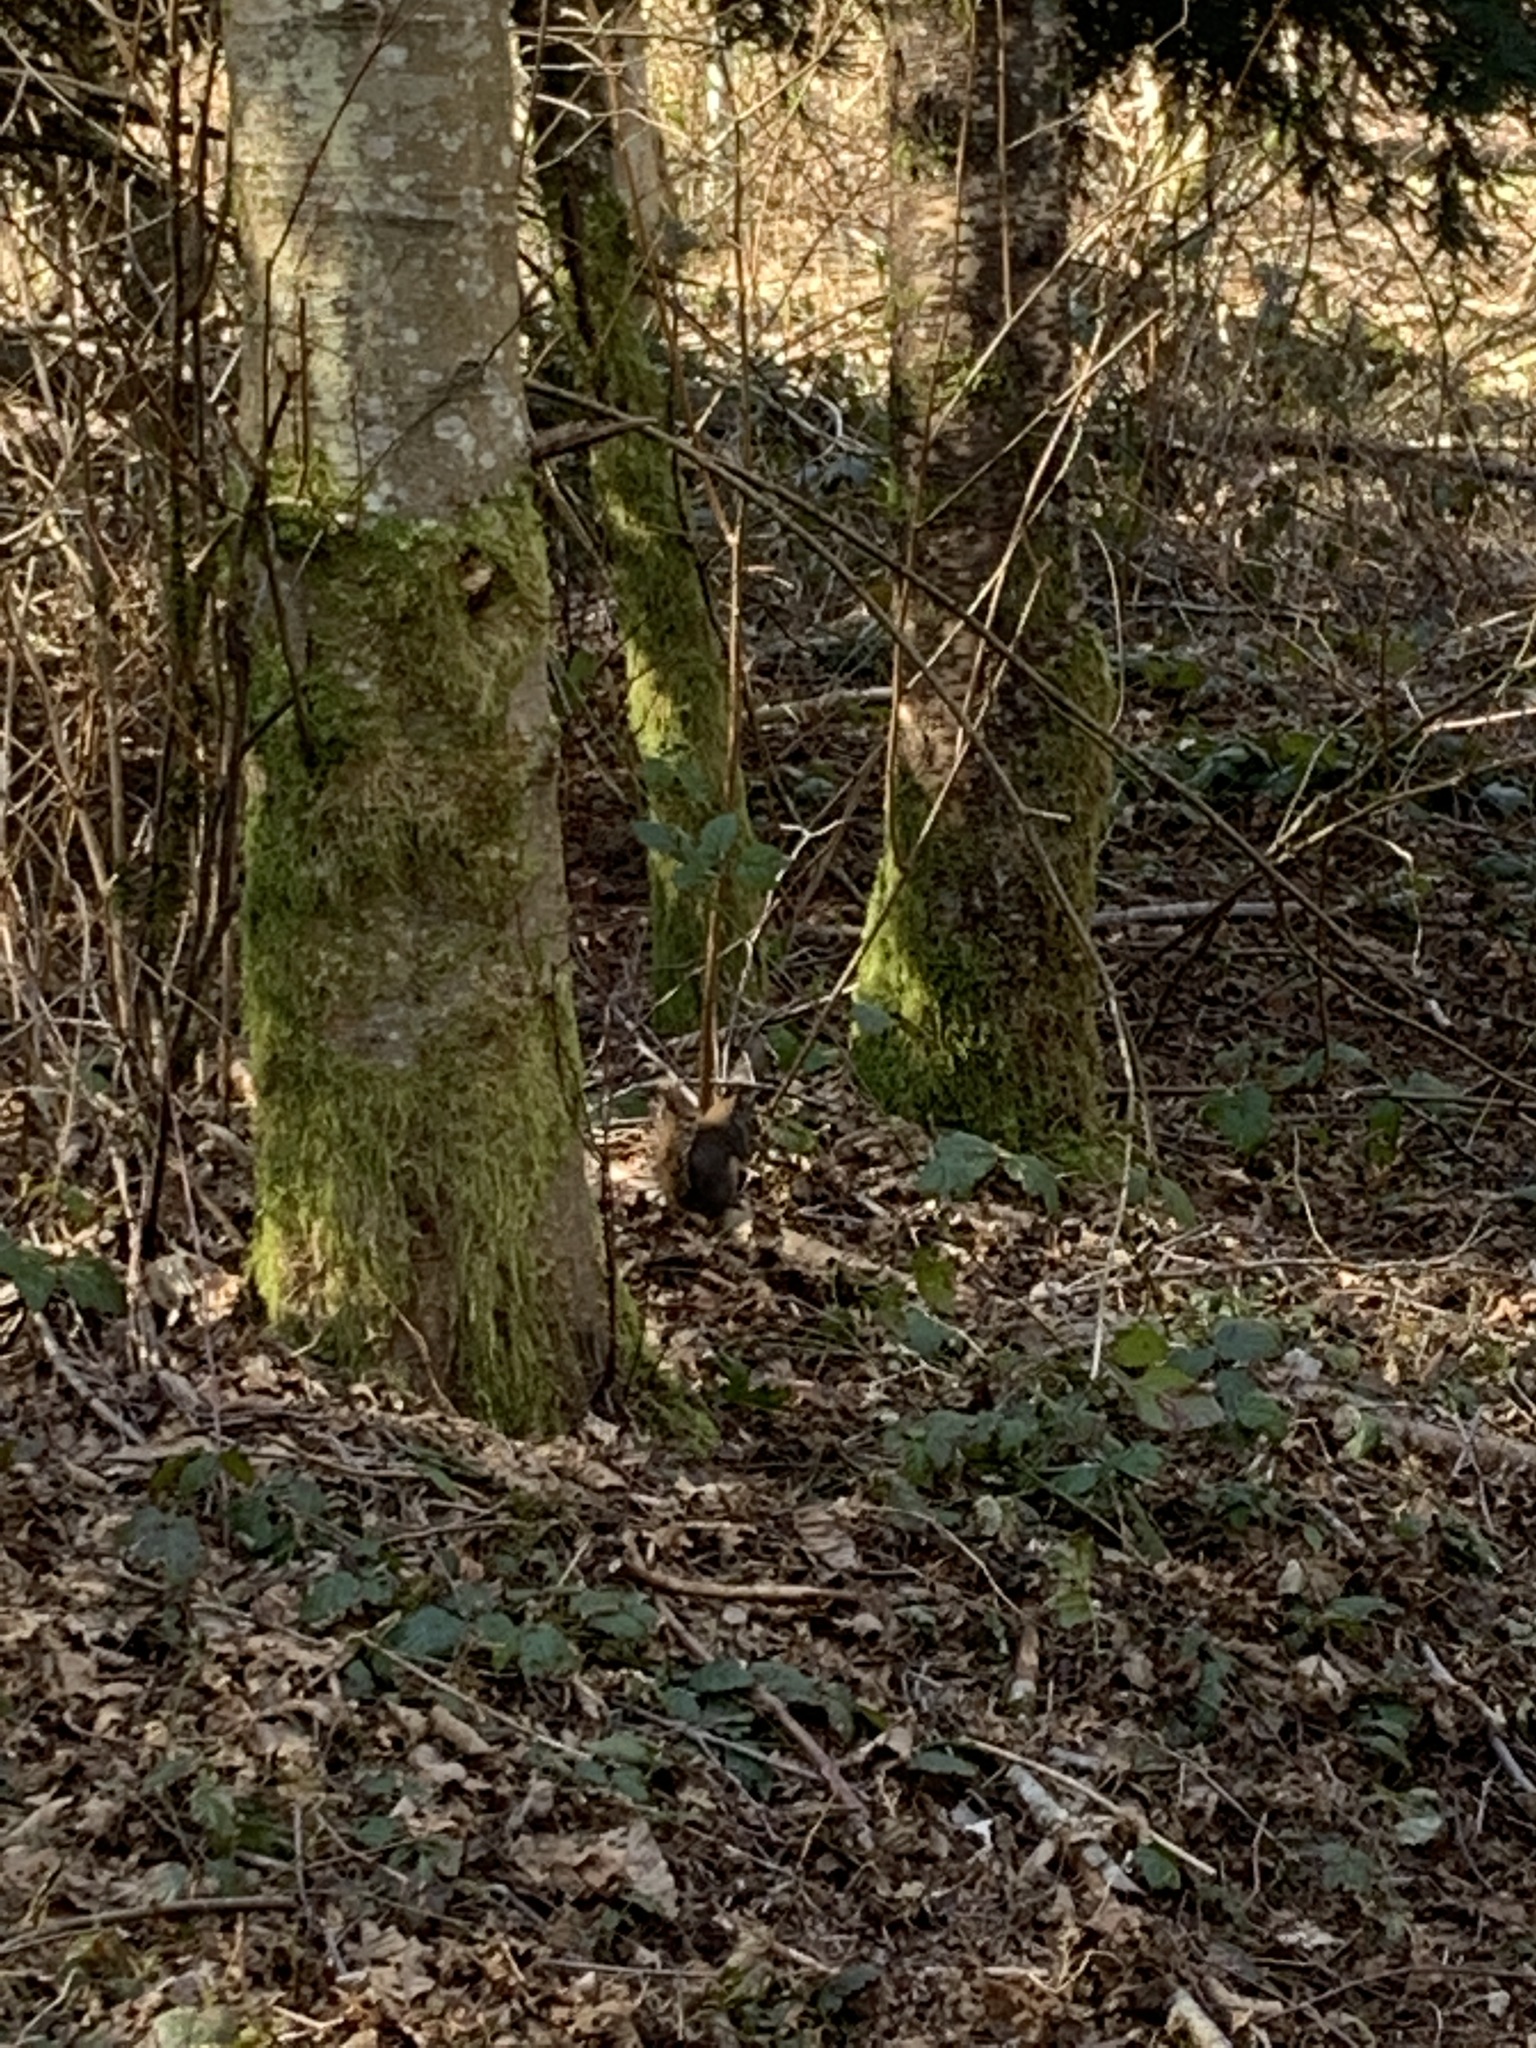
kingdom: Animalia
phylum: Chordata
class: Mammalia
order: Rodentia
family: Sciuridae
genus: Tamiasciurus
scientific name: Tamiasciurus douglasii
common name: Douglas's squirrel
